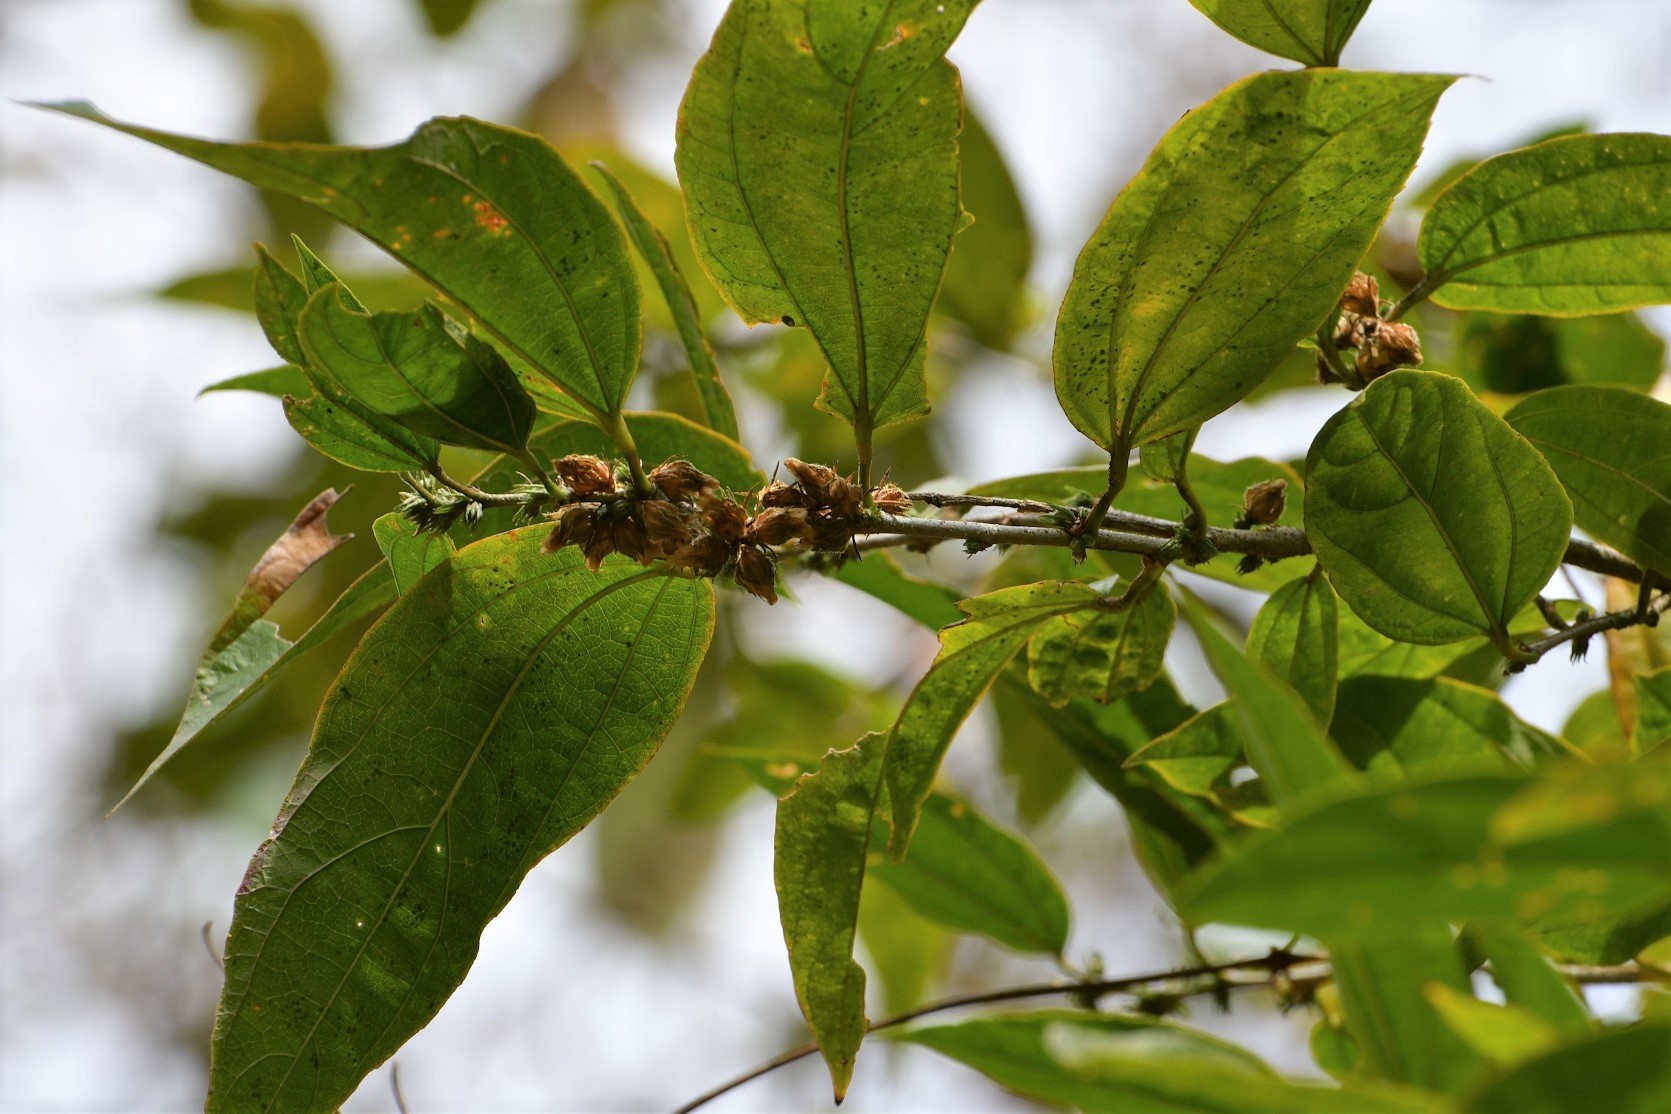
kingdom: Plantae
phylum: Tracheophyta
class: Magnoliopsida
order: Malvales
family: Malvaceae
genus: Hibiscus
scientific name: Hibiscus purpusii
